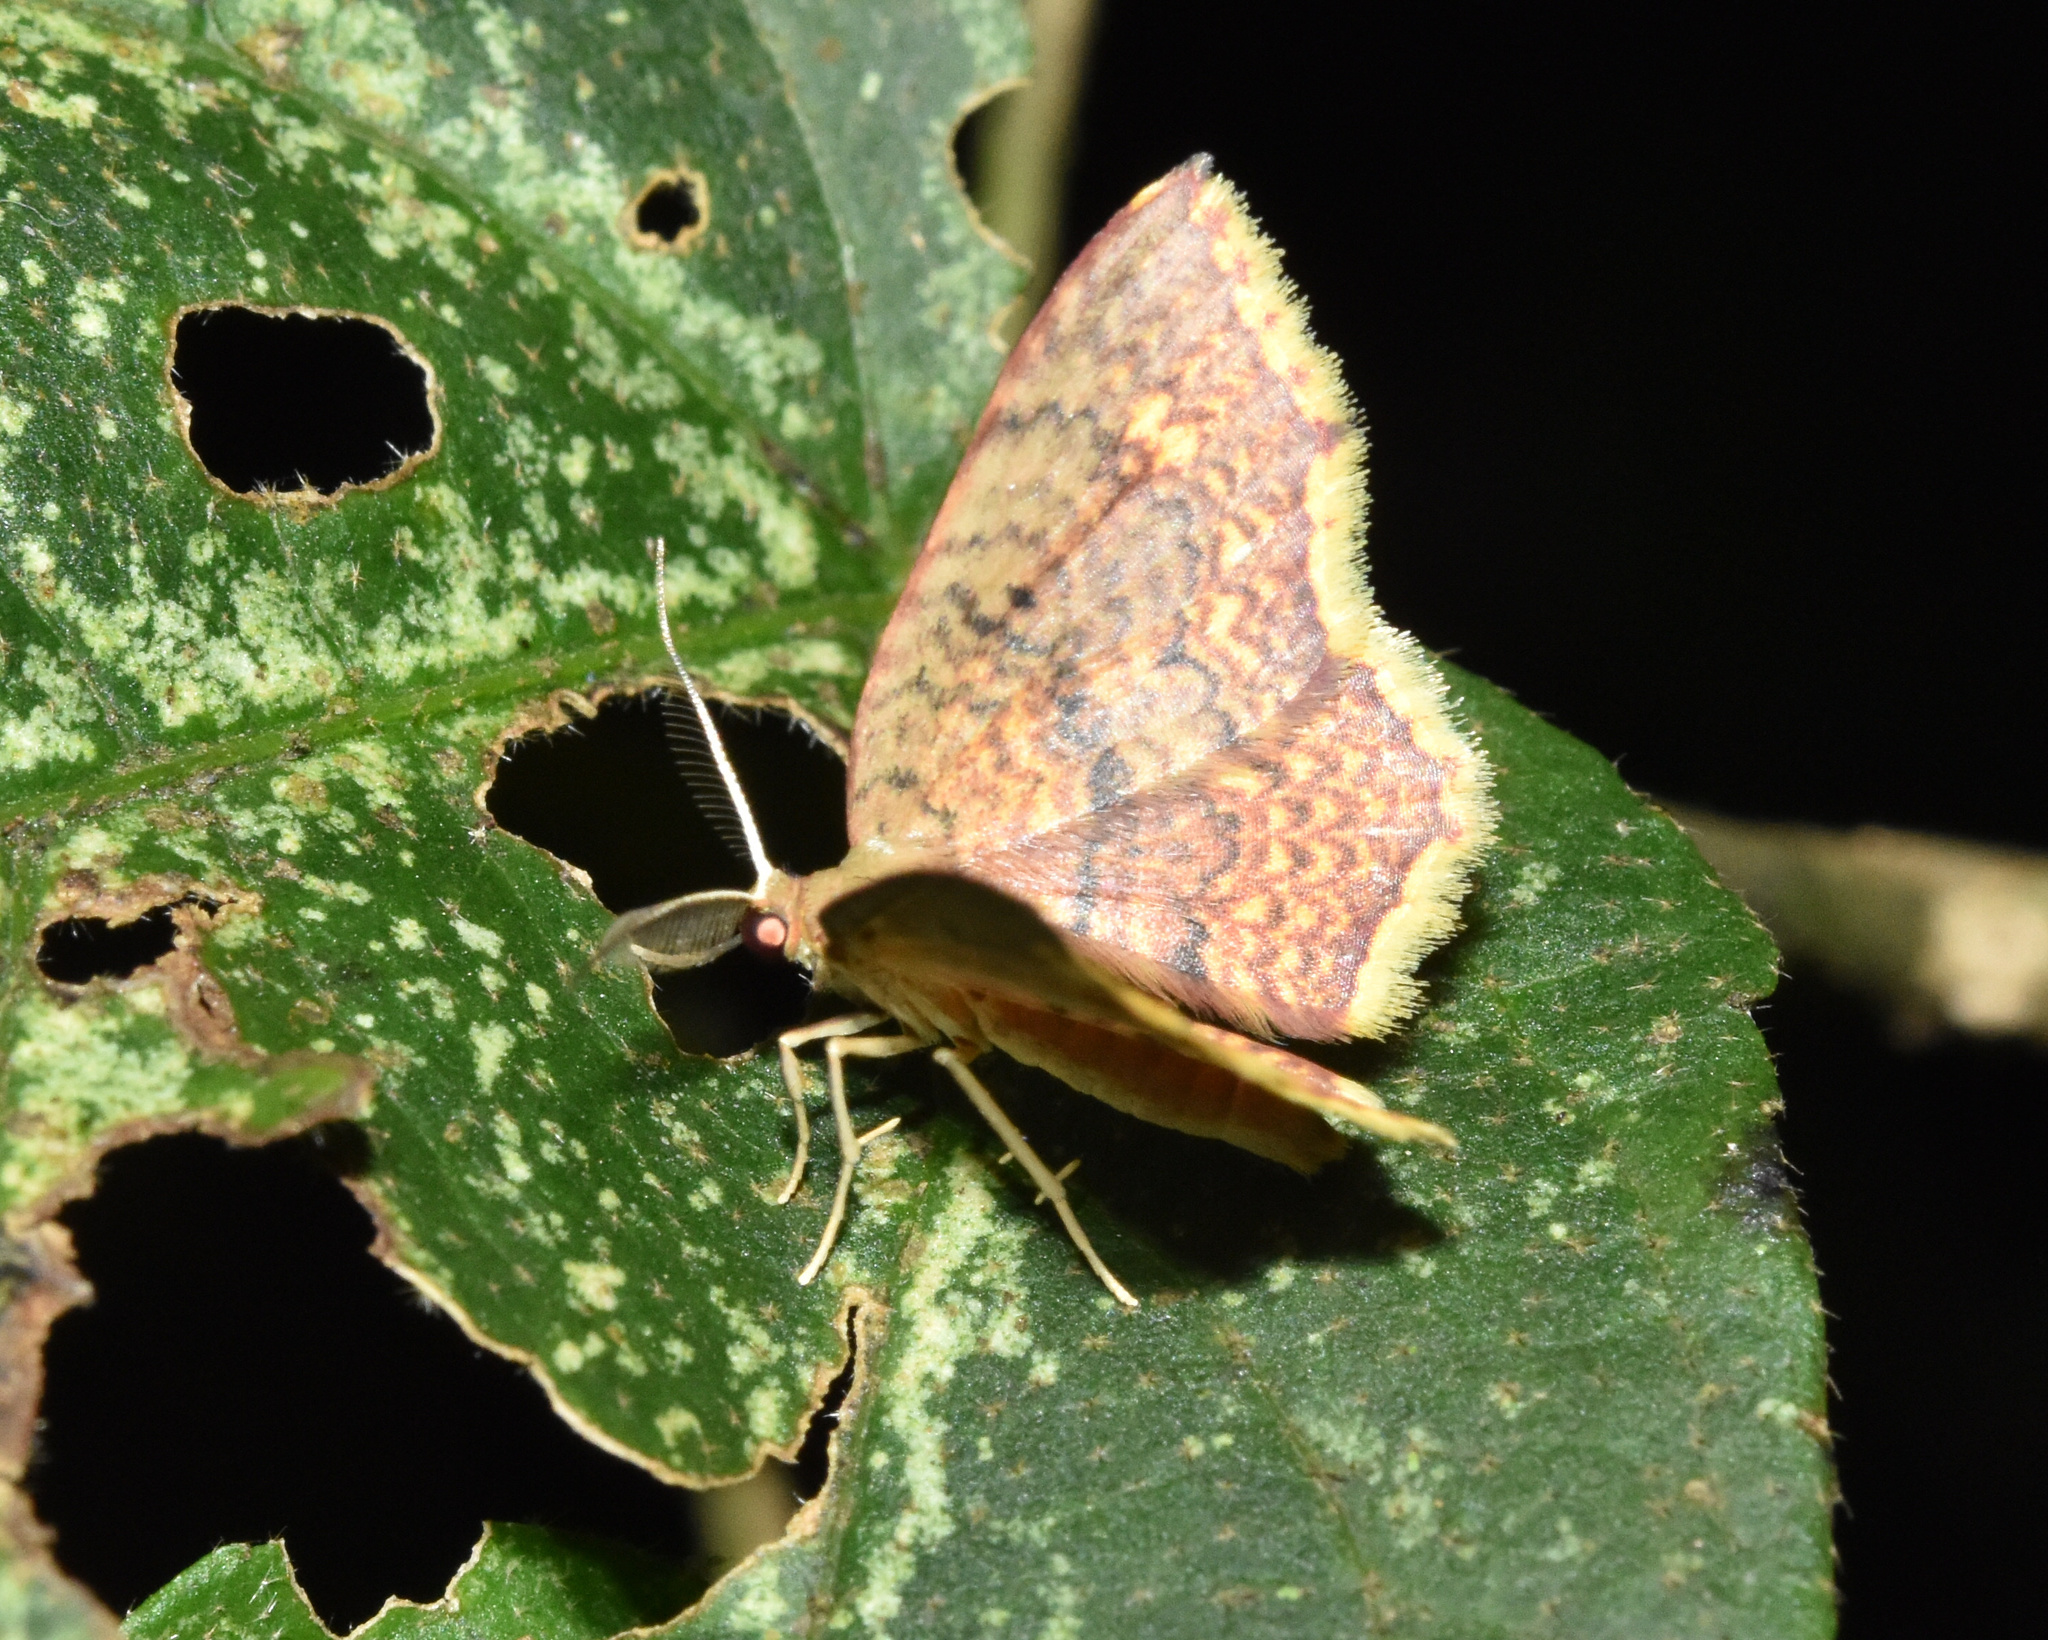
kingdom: Animalia
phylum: Arthropoda
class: Insecta
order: Lepidoptera
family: Geometridae
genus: Eois
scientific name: Eois grataria
